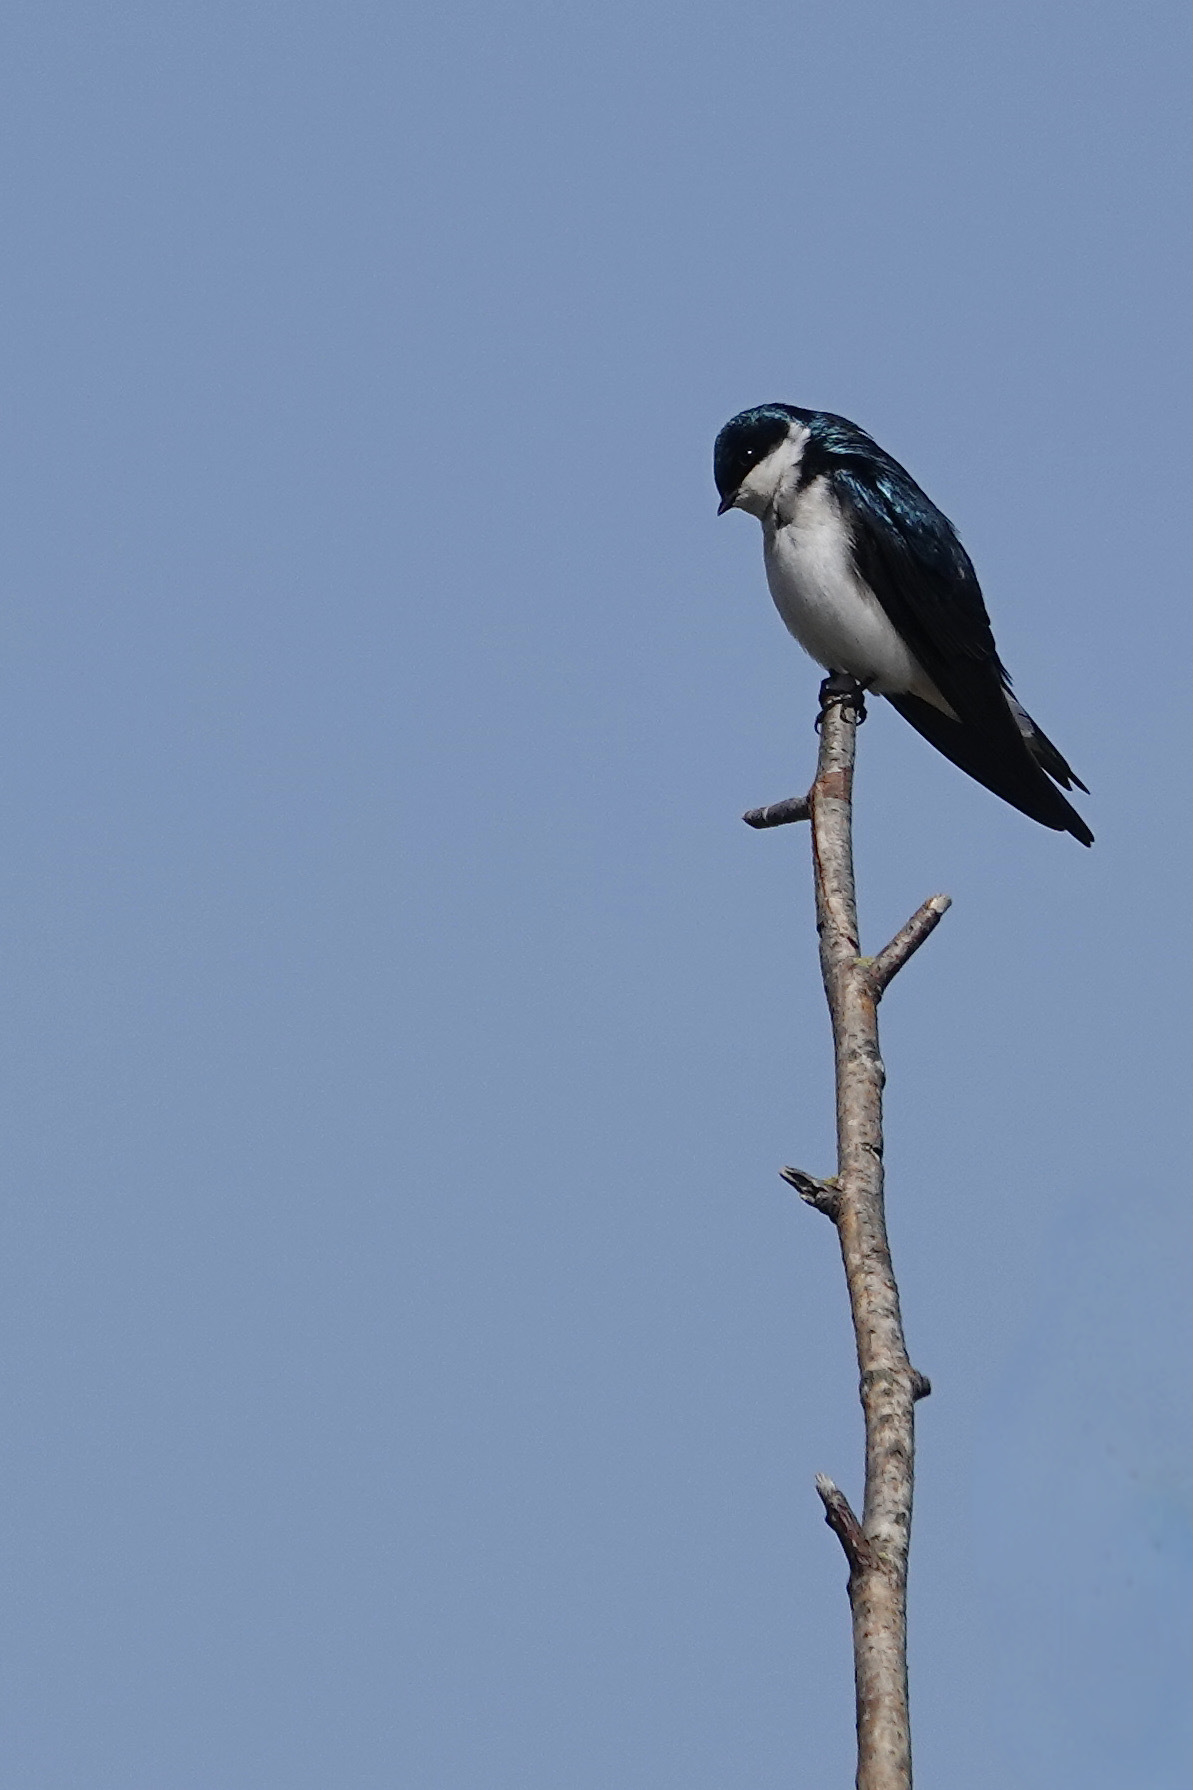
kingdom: Animalia
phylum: Chordata
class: Aves
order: Passeriformes
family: Hirundinidae
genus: Tachycineta
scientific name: Tachycineta bicolor
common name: Tree swallow
